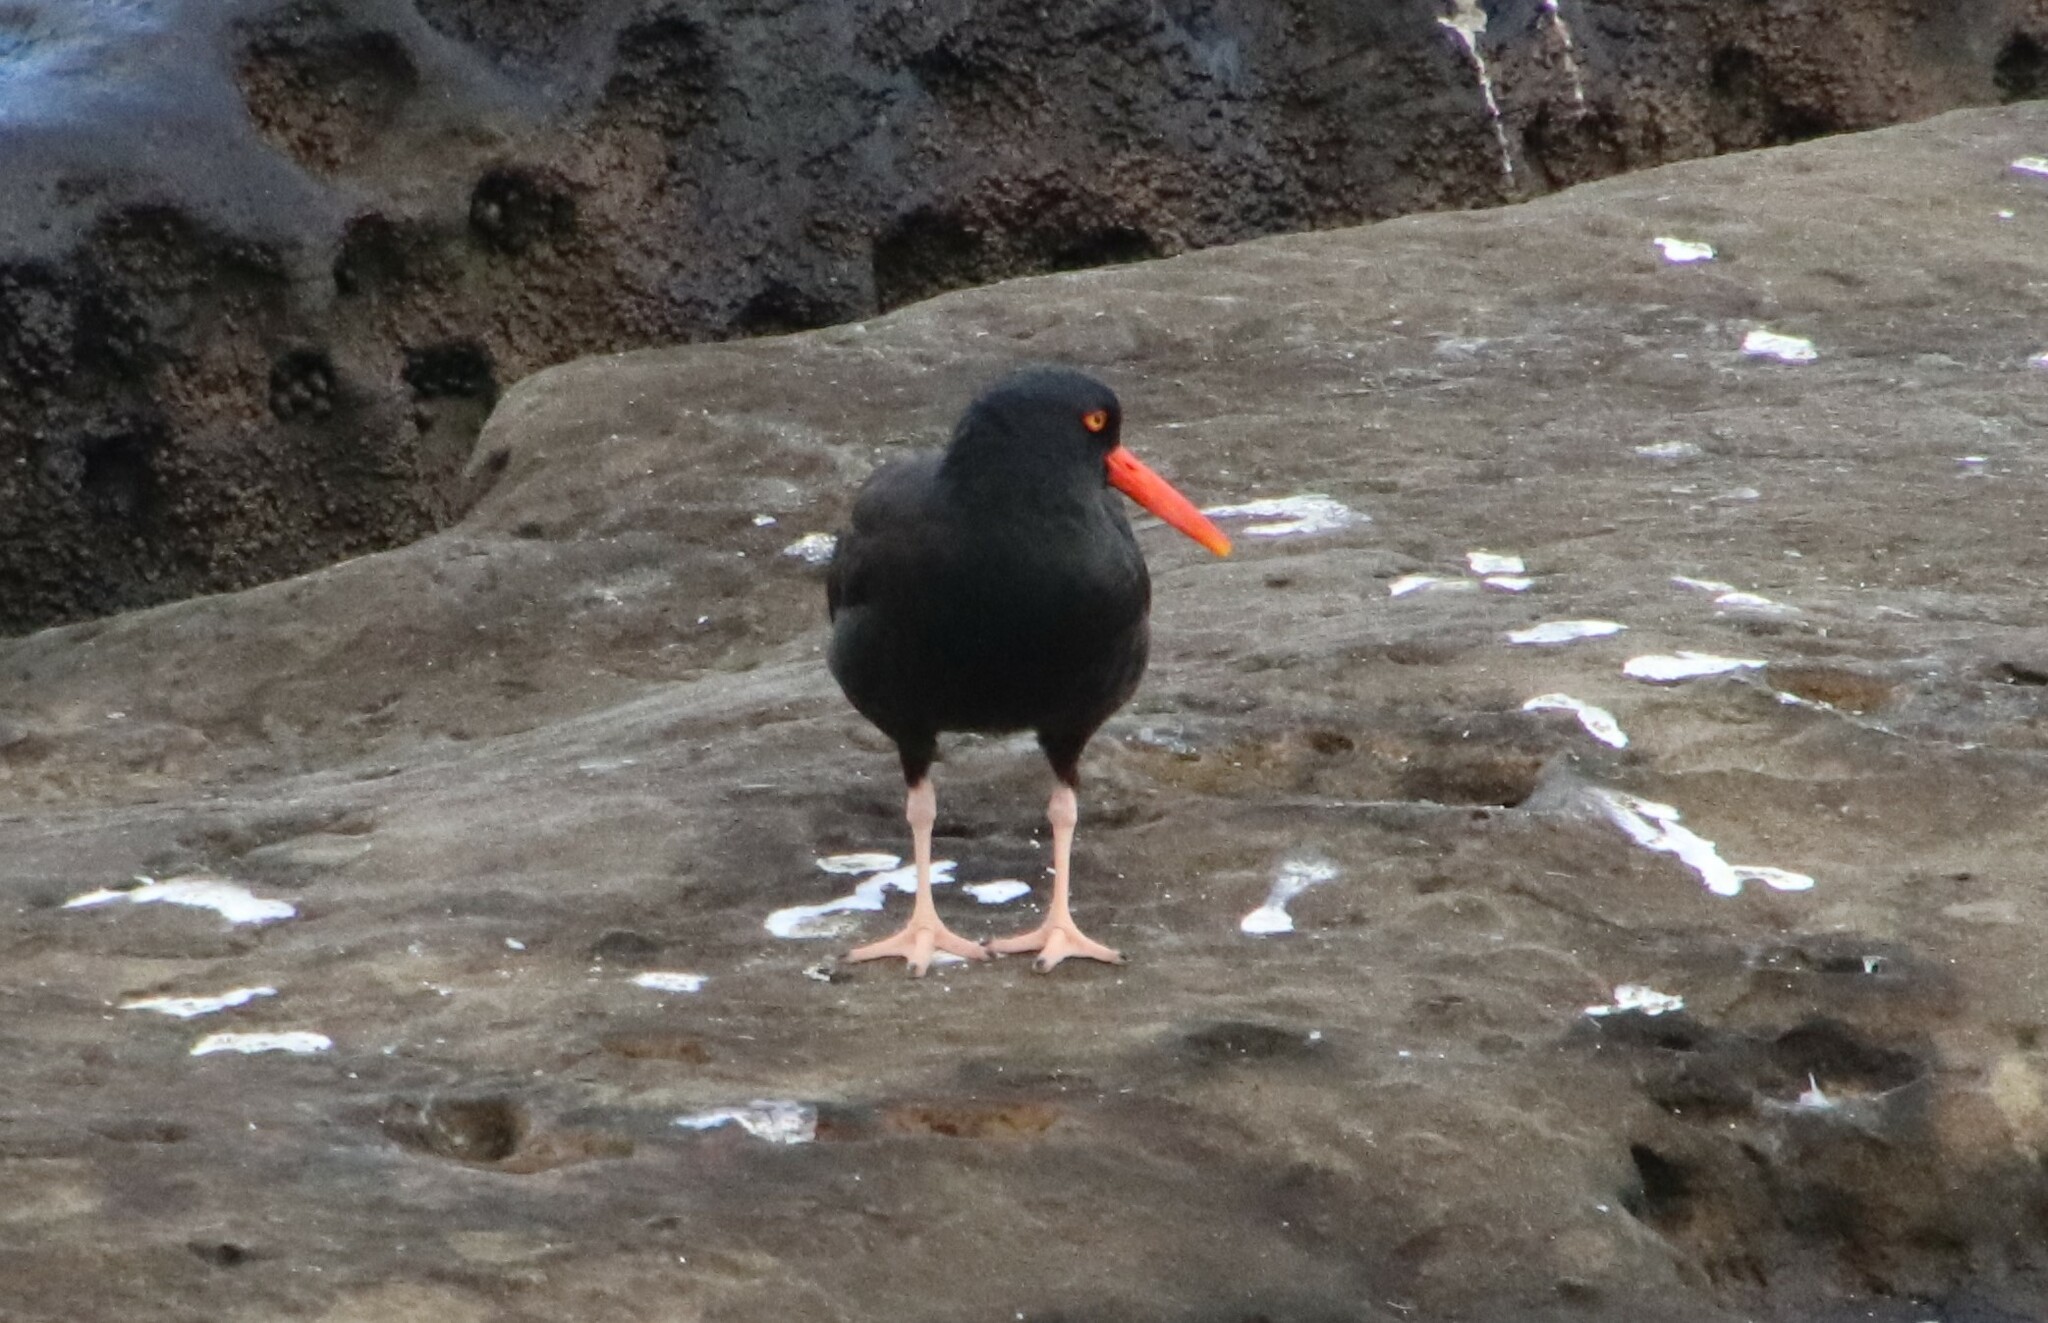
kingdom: Animalia
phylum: Chordata
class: Aves
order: Charadriiformes
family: Haematopodidae
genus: Haematopus
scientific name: Haematopus bachmani
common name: Black oystercatcher
